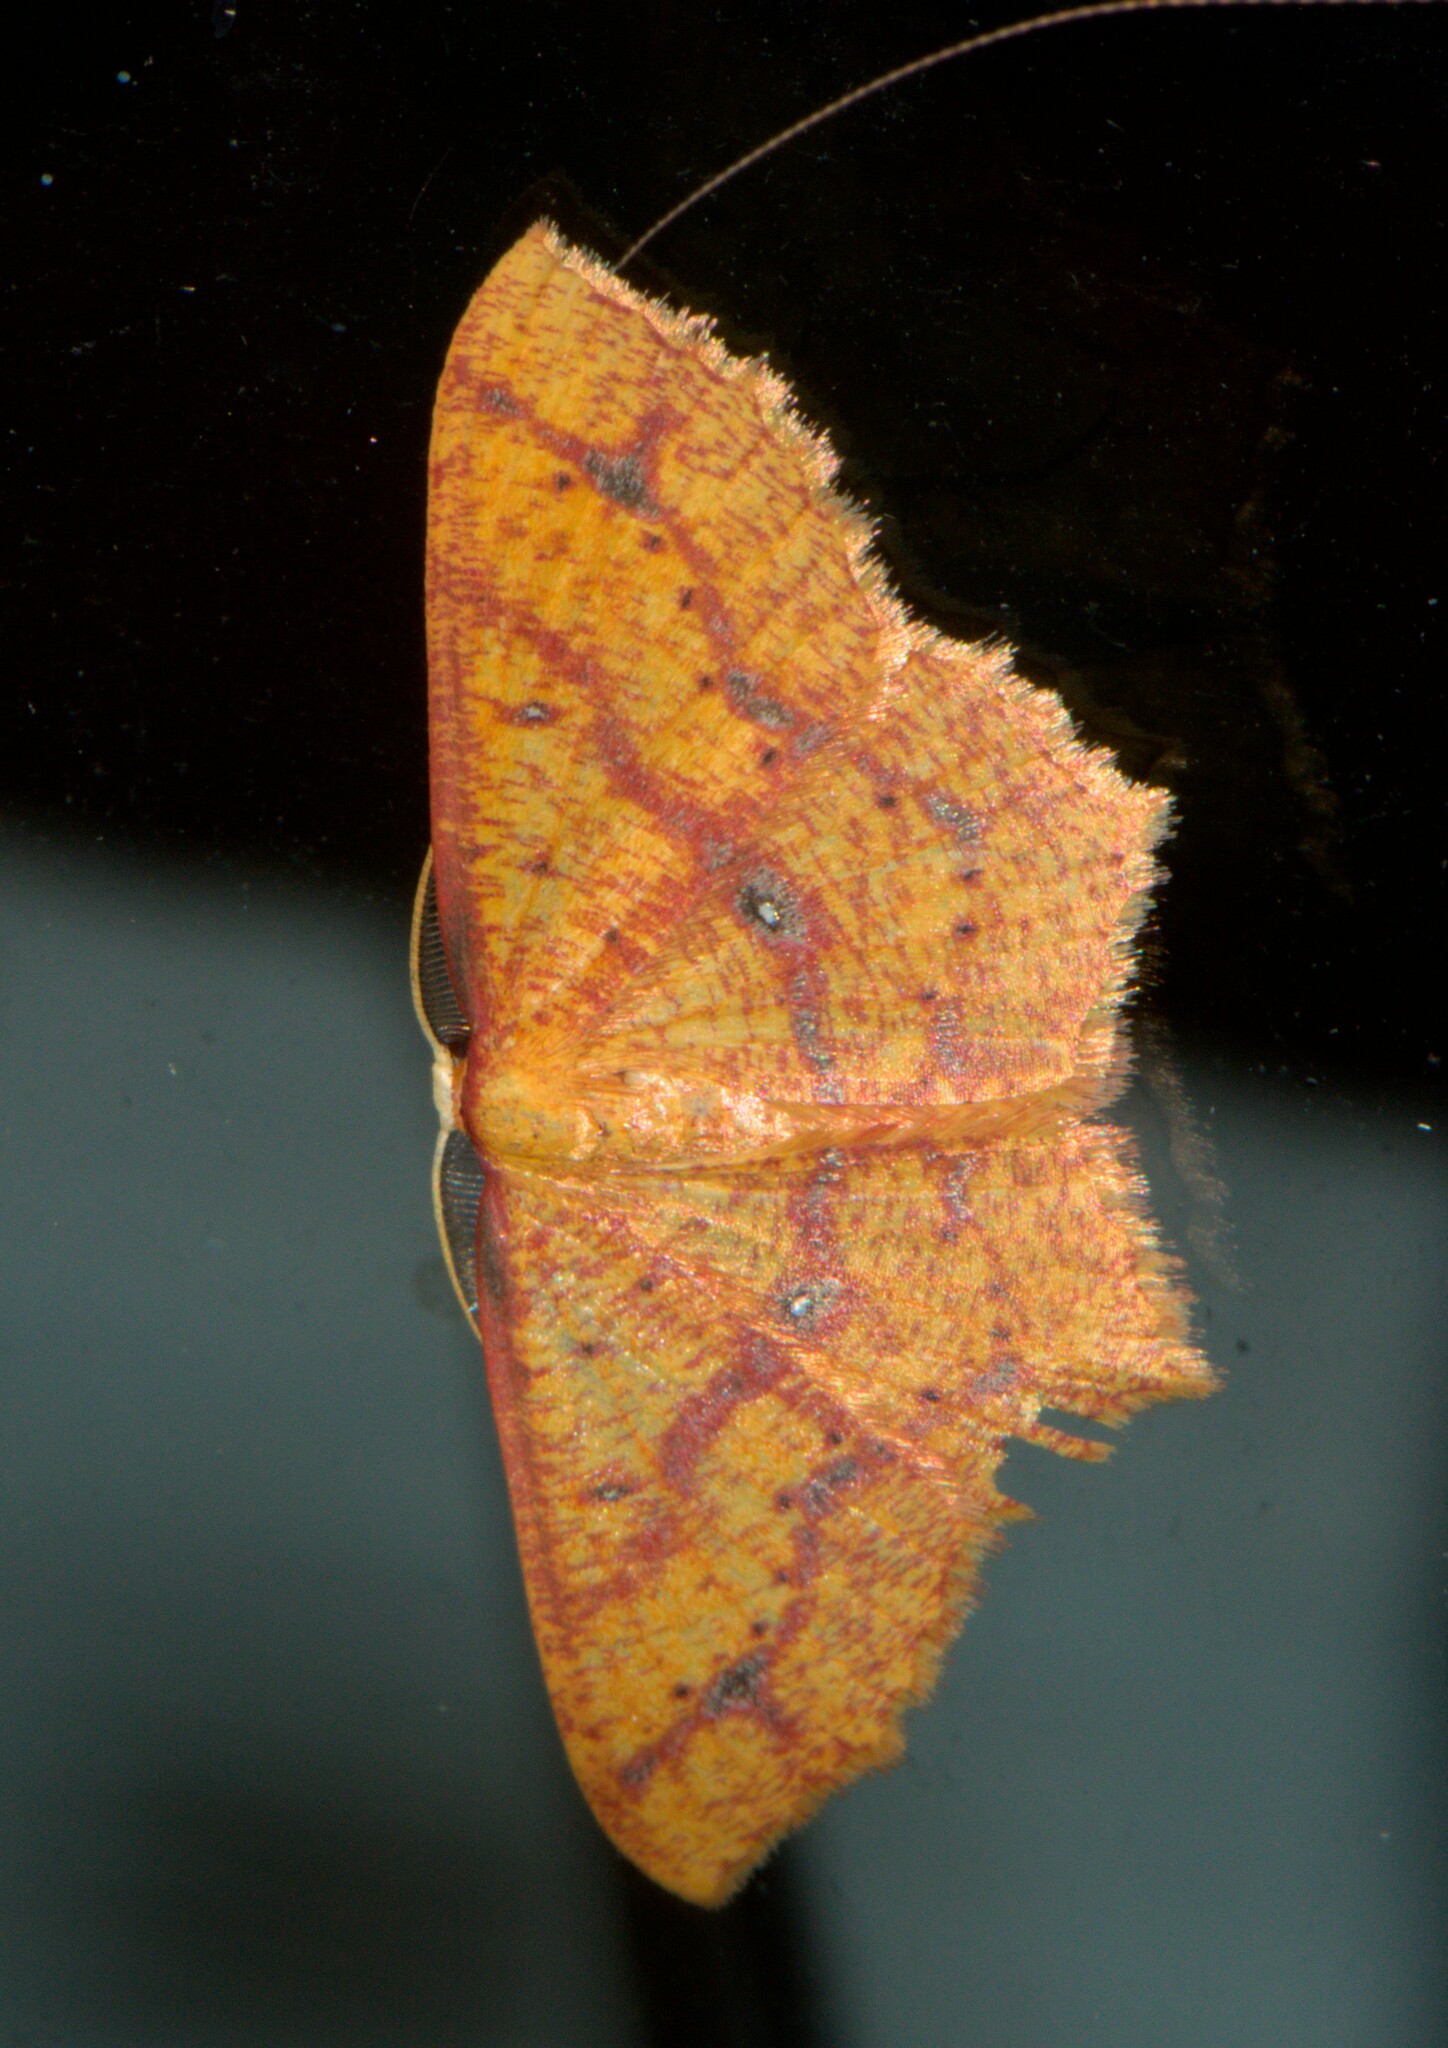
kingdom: Animalia
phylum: Arthropoda
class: Insecta
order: Lepidoptera
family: Geometridae
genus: Synegiodes
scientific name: Synegiodes hyriaria
